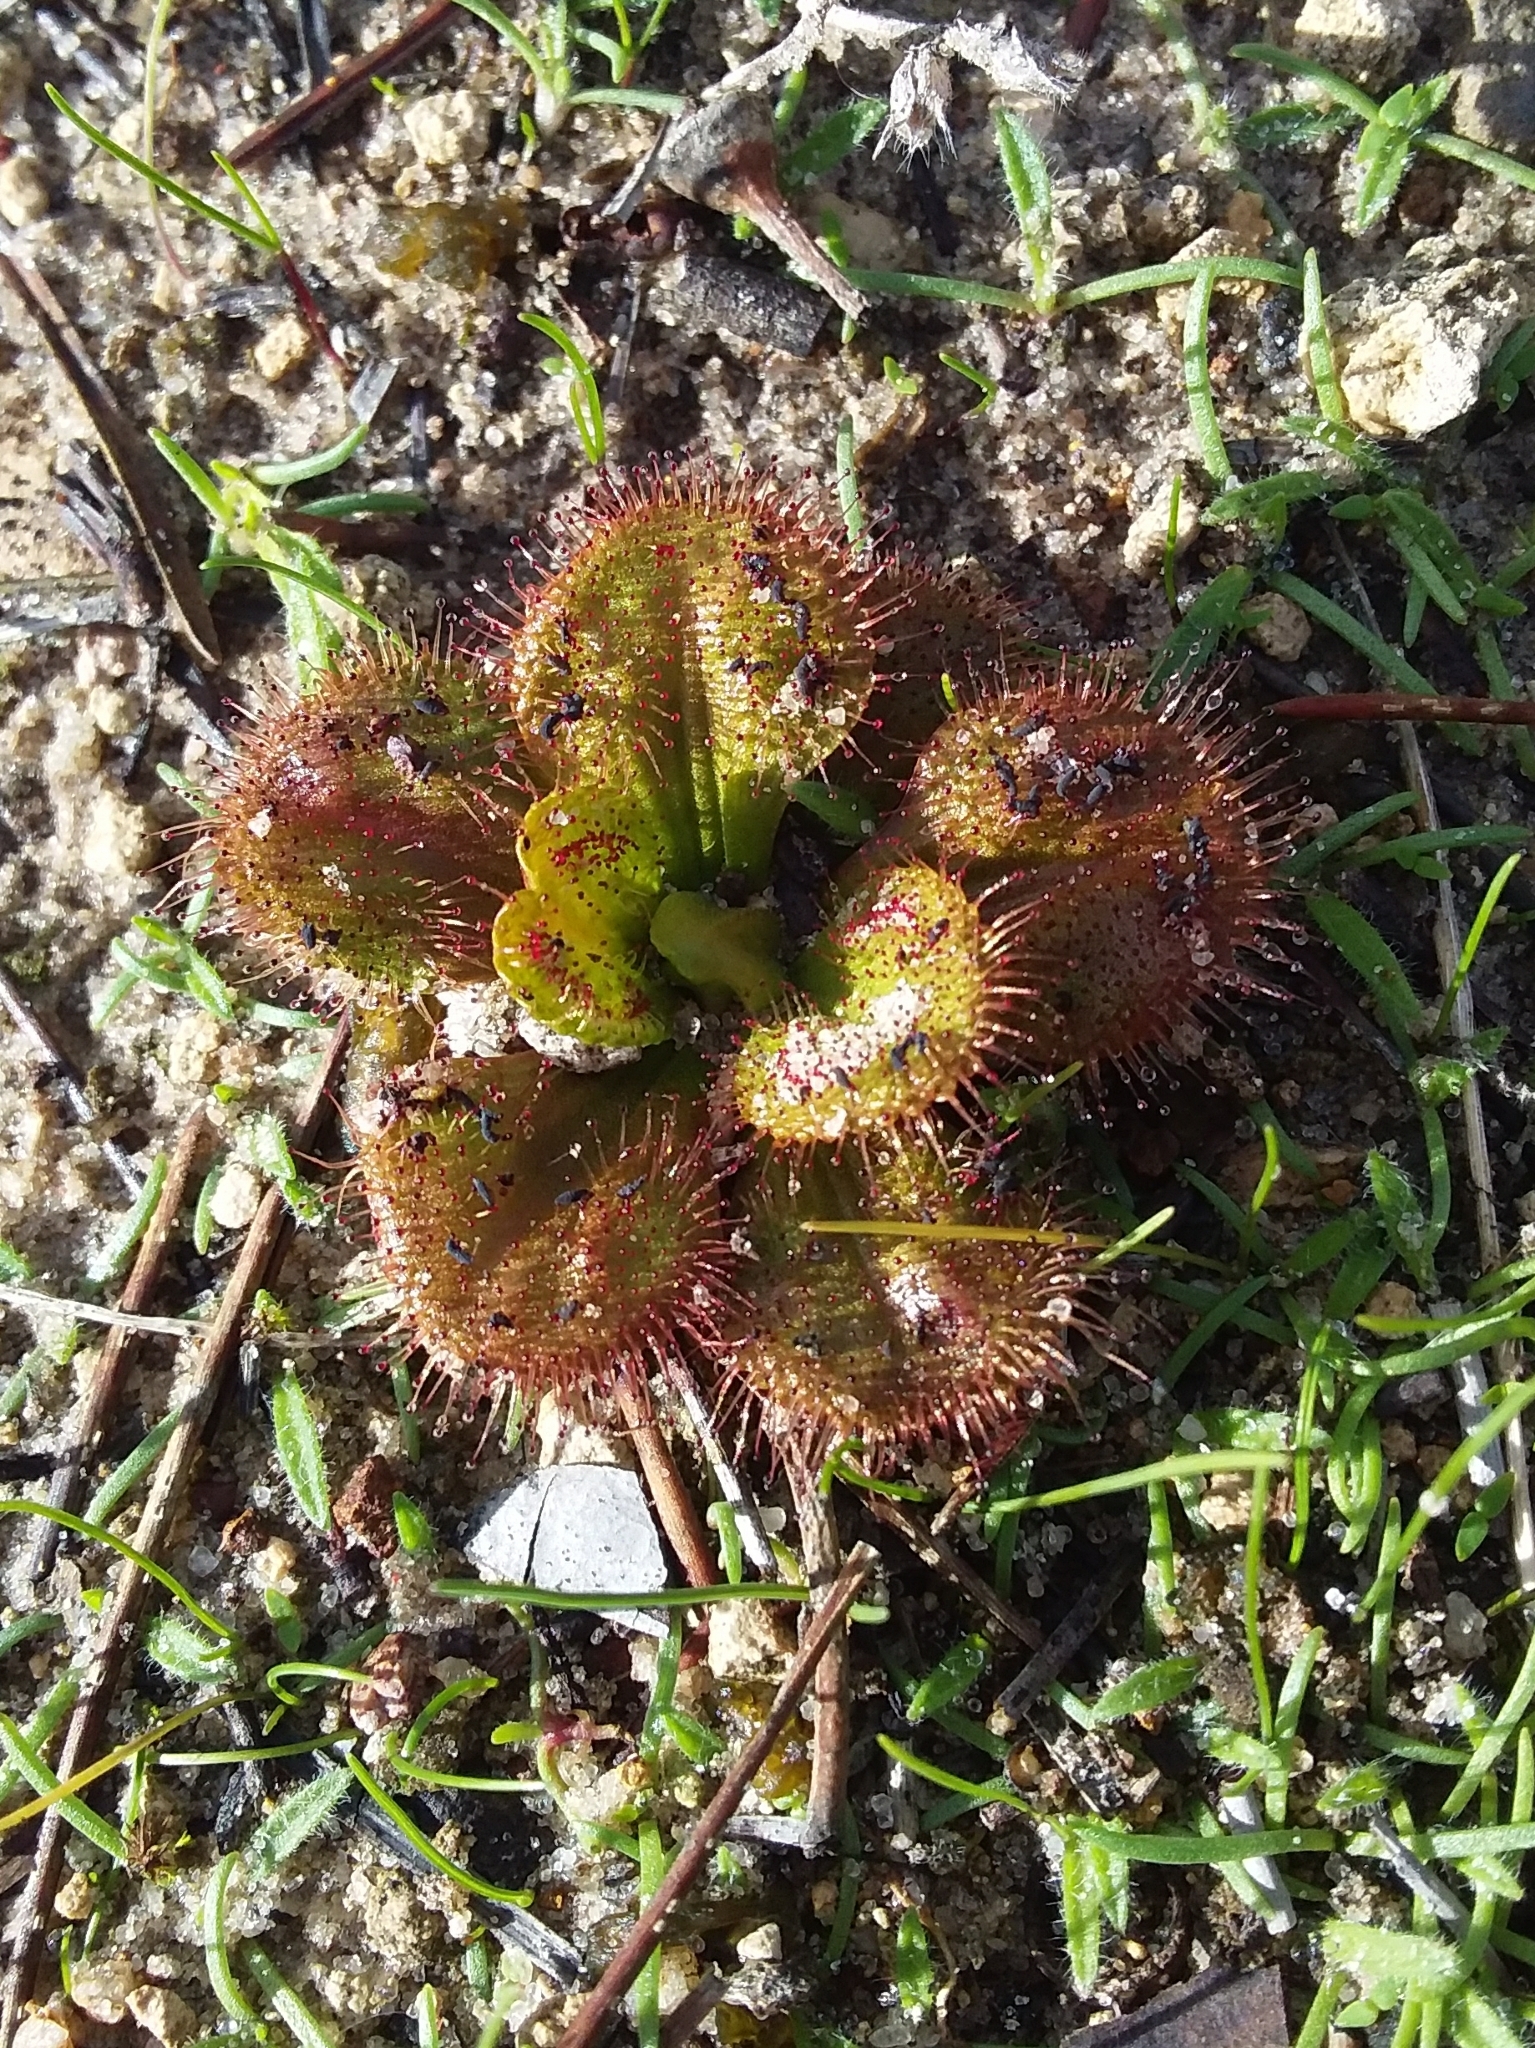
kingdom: Plantae
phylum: Tracheophyta
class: Magnoliopsida
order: Caryophyllales
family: Droseraceae
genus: Drosera
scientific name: Drosera whittakeri
